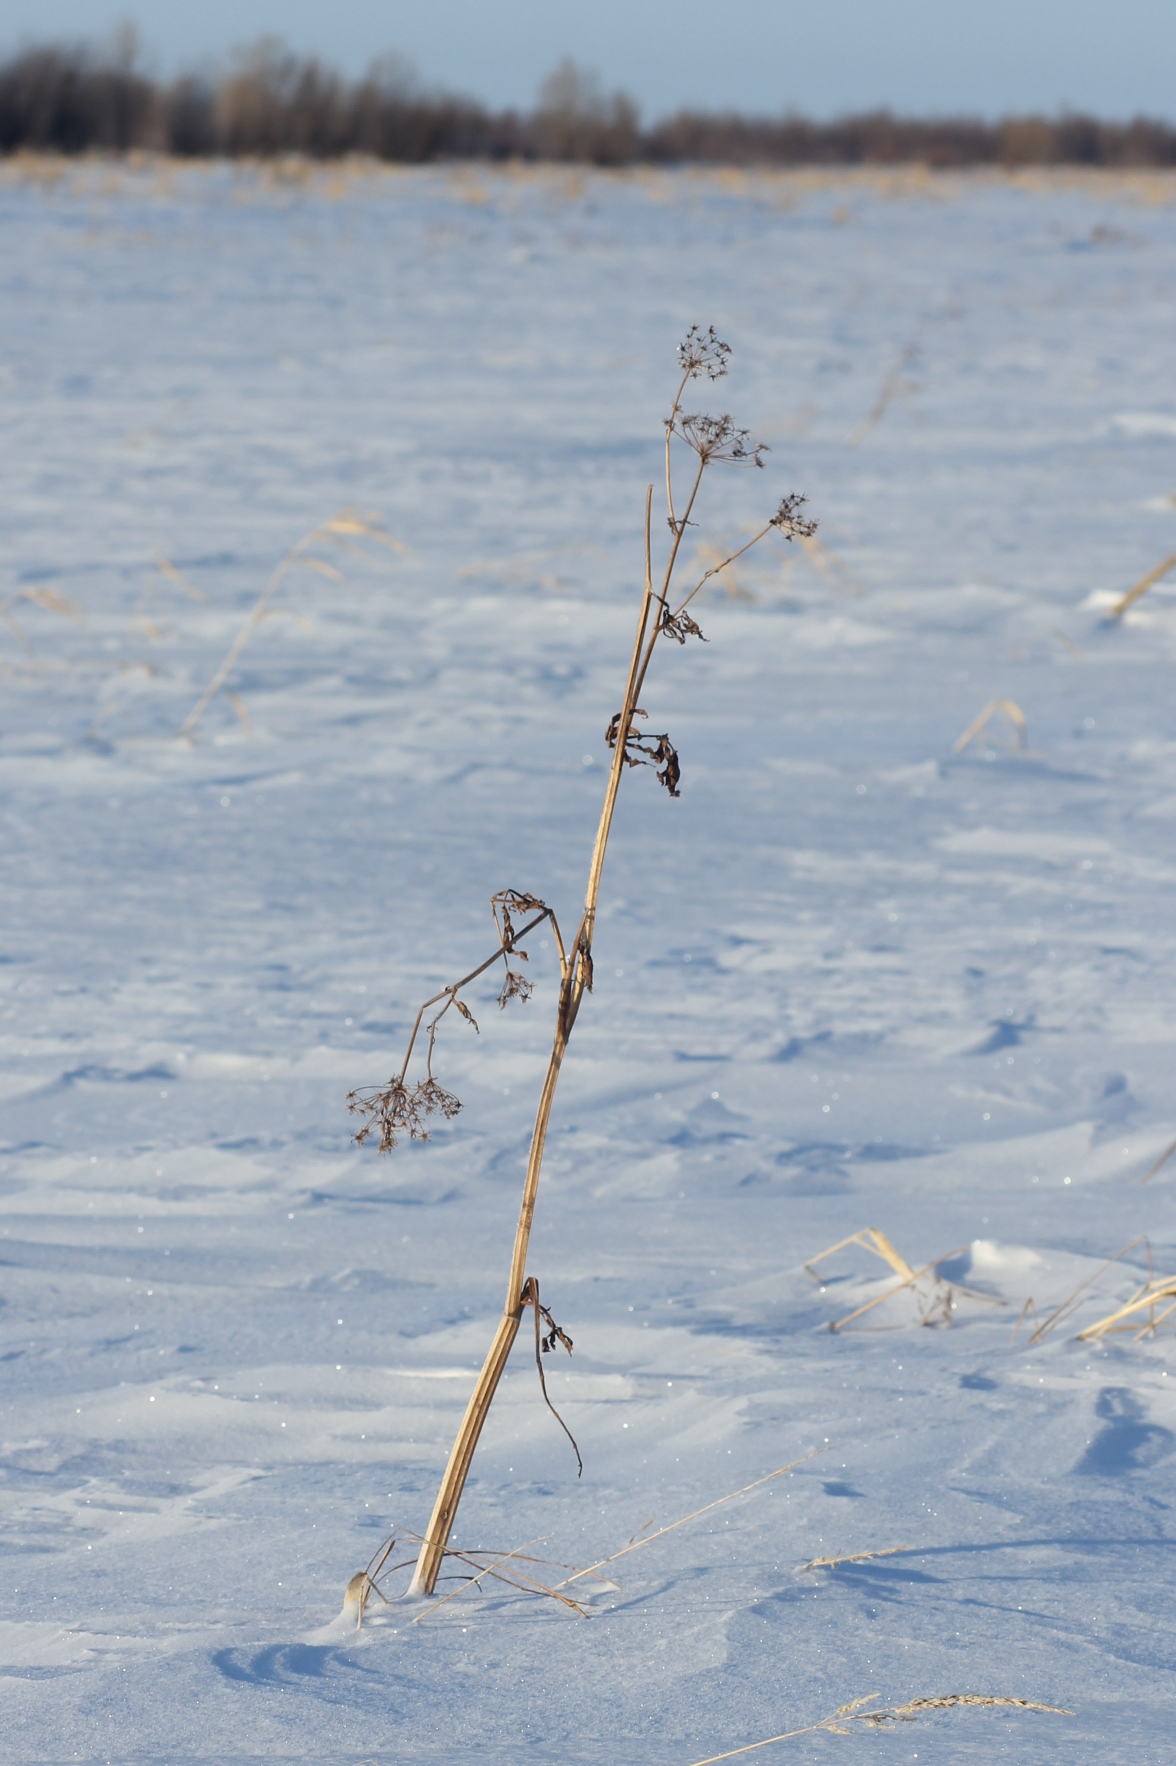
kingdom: Plantae
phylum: Tracheophyta
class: Magnoliopsida
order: Apiales
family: Apiaceae
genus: Cicuta
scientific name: Cicuta virosa
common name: Cowbane
